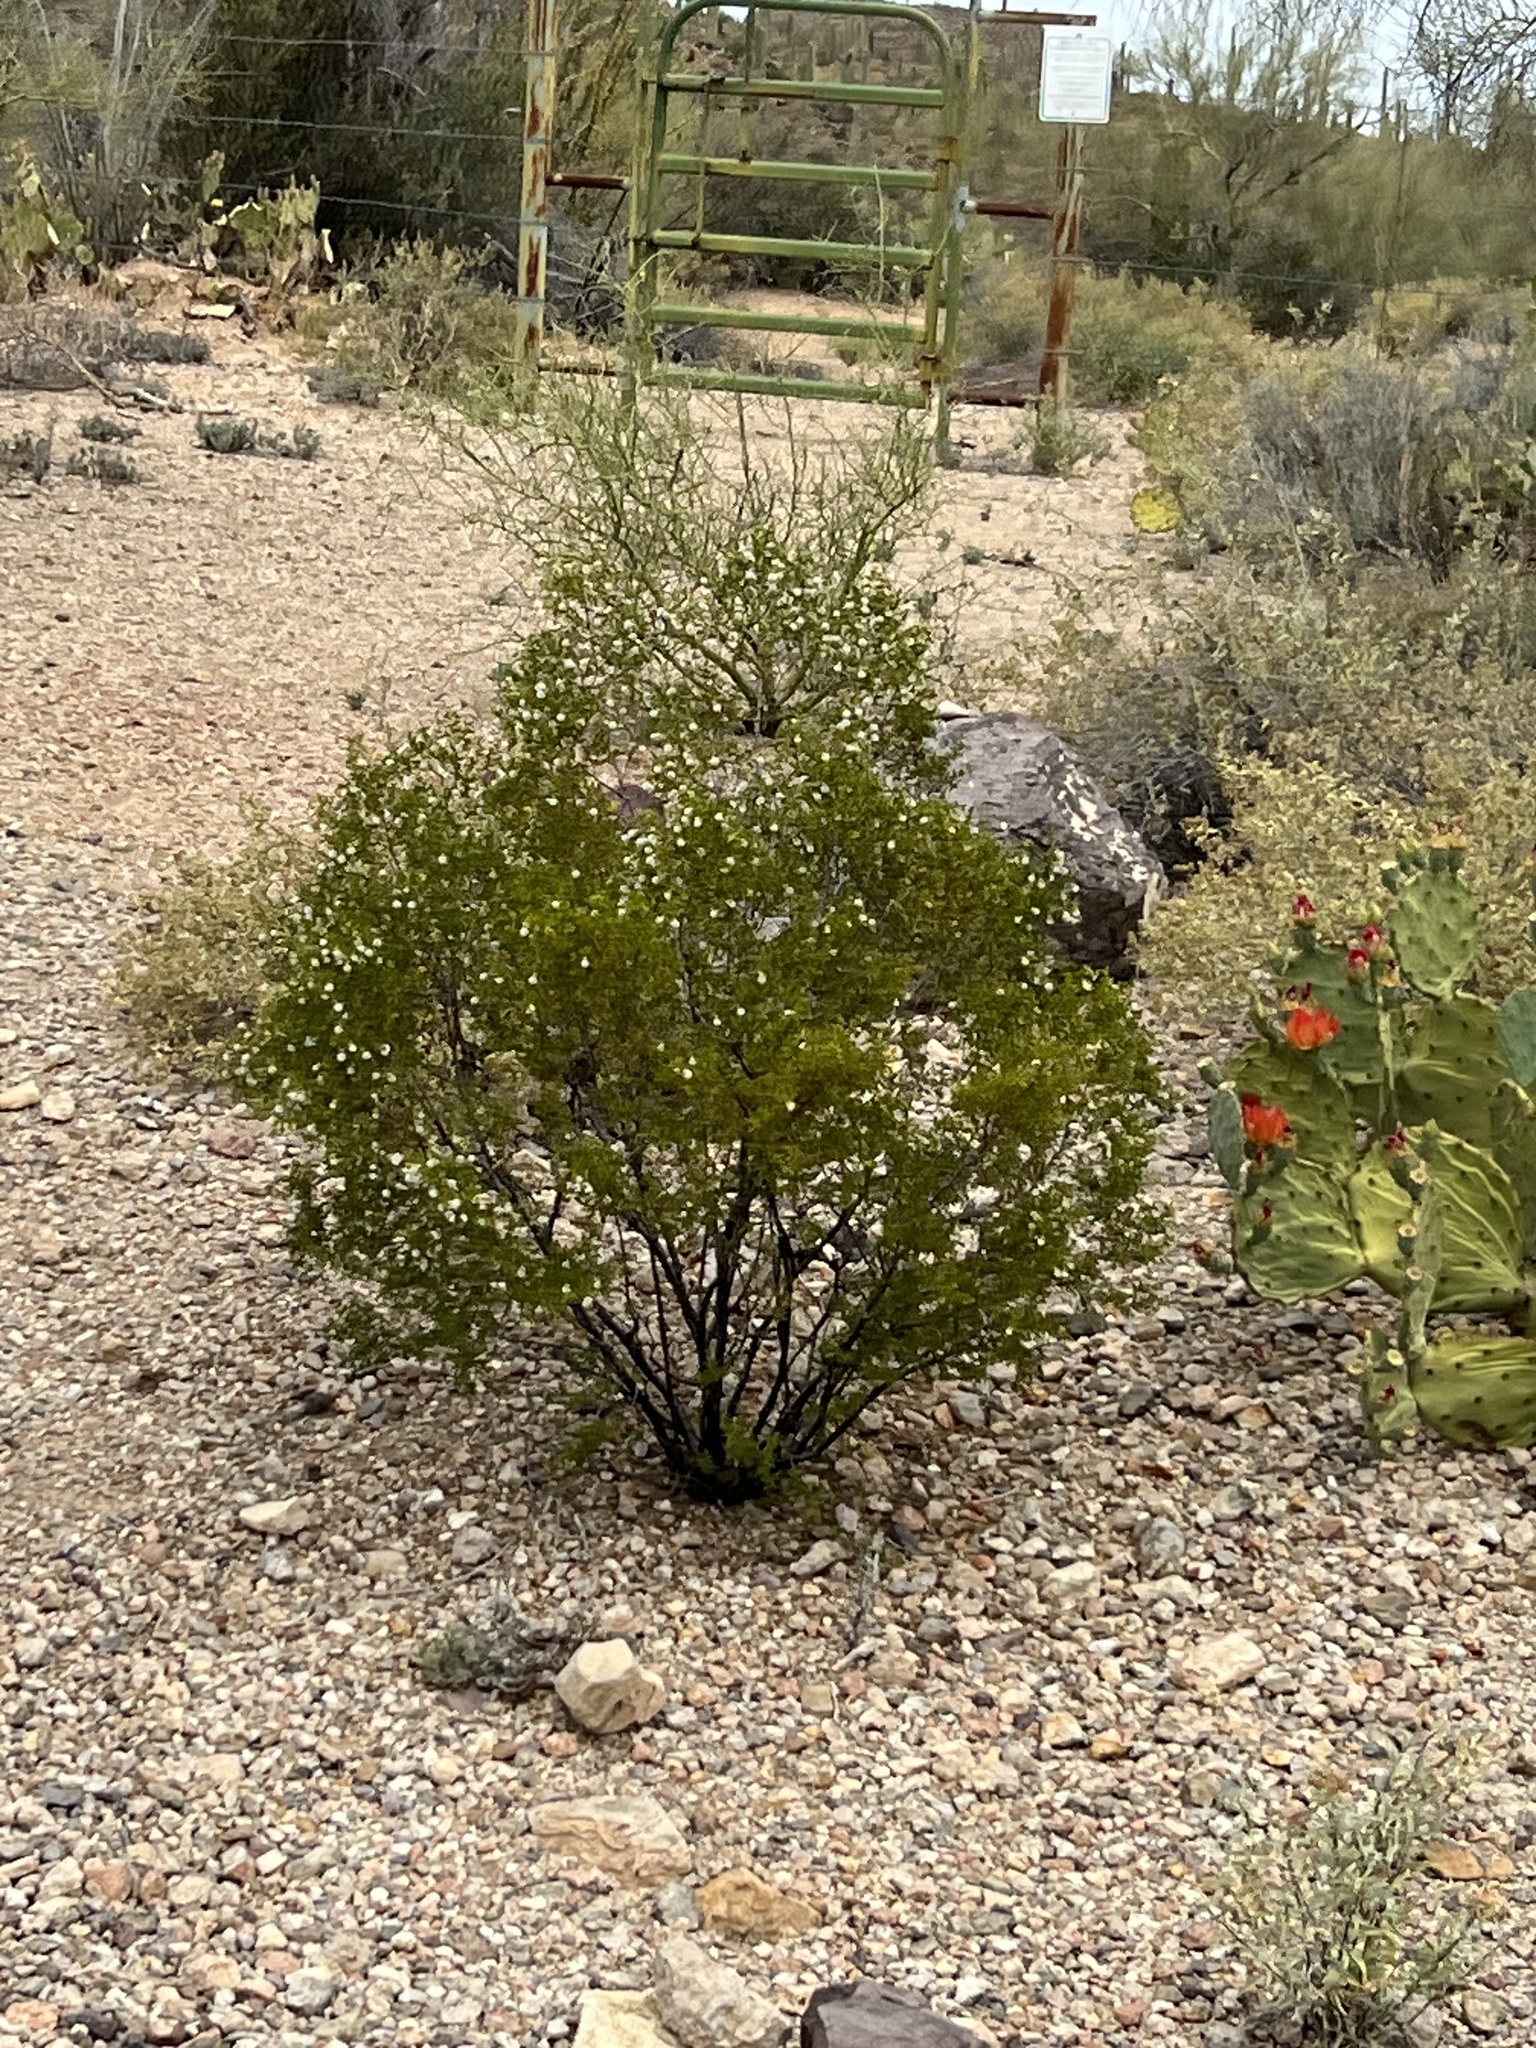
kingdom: Plantae
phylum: Tracheophyta
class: Magnoliopsida
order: Zygophyllales
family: Zygophyllaceae
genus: Larrea
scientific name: Larrea tridentata
